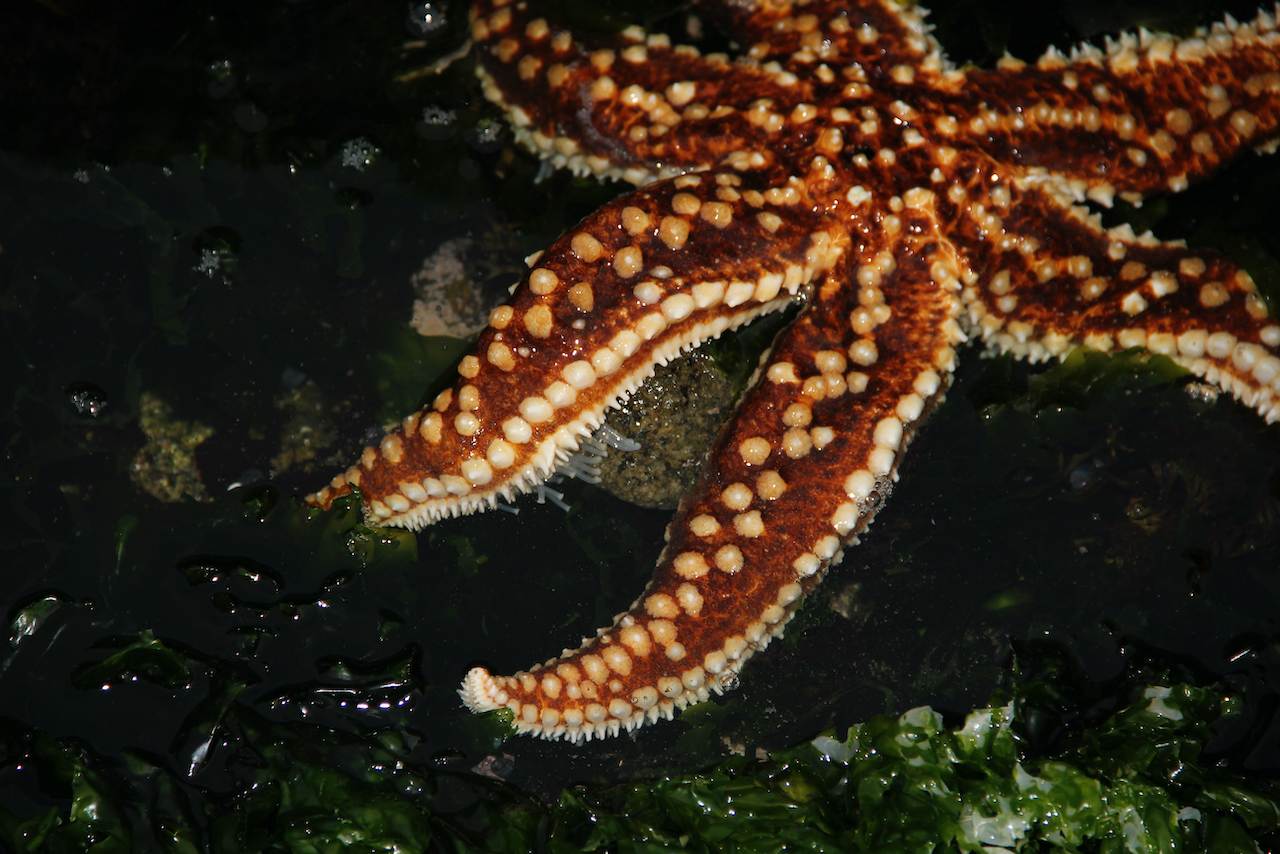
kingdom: Animalia
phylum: Echinodermata
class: Asteroidea
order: Forcipulatida
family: Asteriidae
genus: Meyenaster
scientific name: Meyenaster gelatinosus
